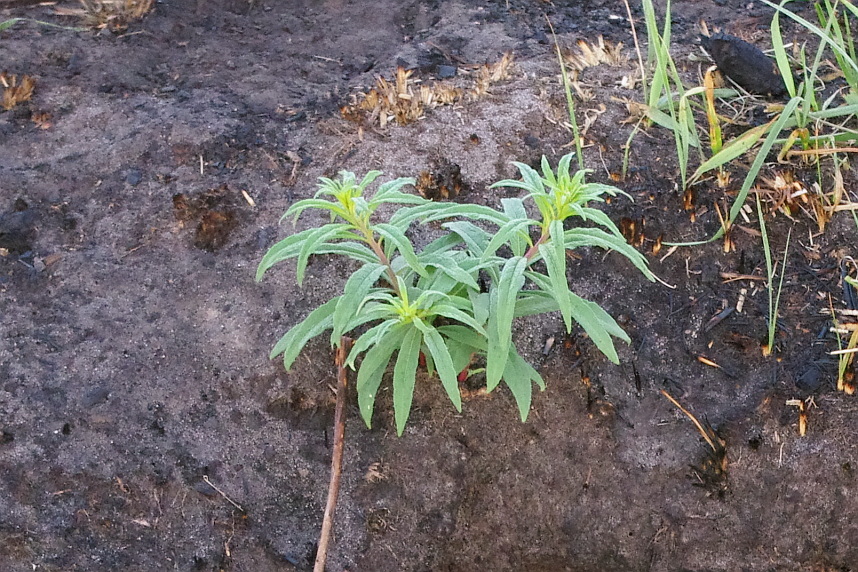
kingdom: Plantae
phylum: Tracheophyta
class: Magnoliopsida
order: Myrtales
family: Onagraceae
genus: Chamaenerion
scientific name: Chamaenerion angustifolium
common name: Fireweed
